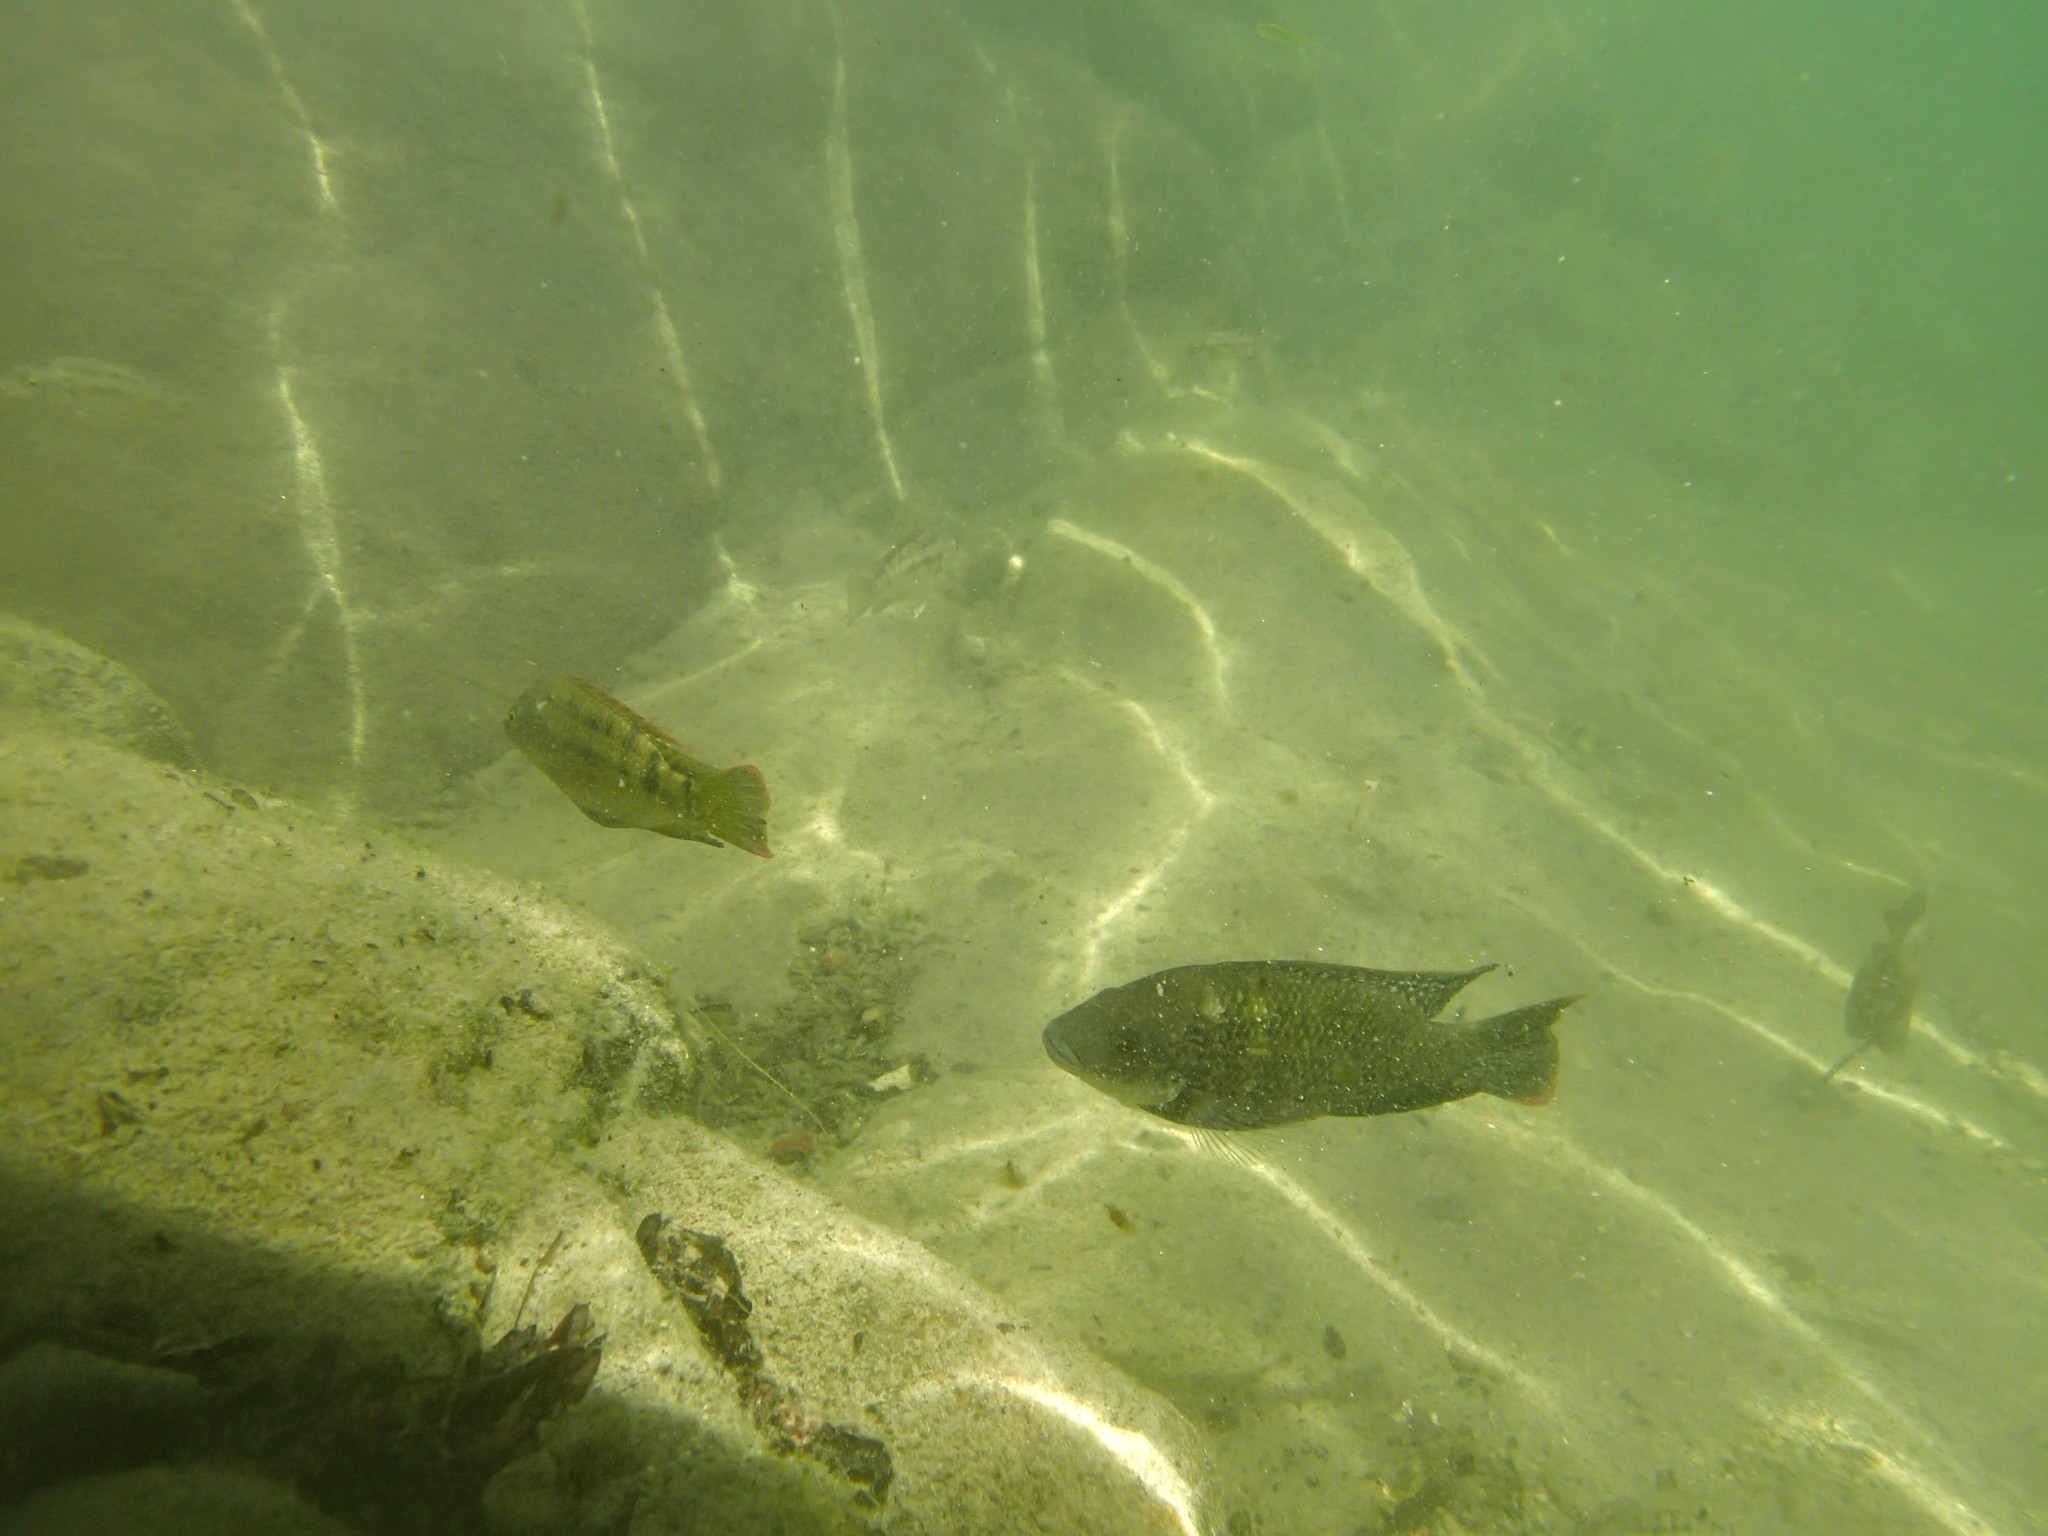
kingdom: Animalia
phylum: Chordata
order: Perciformes
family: Cichlidae
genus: Oreochromis
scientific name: Oreochromis mossambicus
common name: Mozambique tilapia
